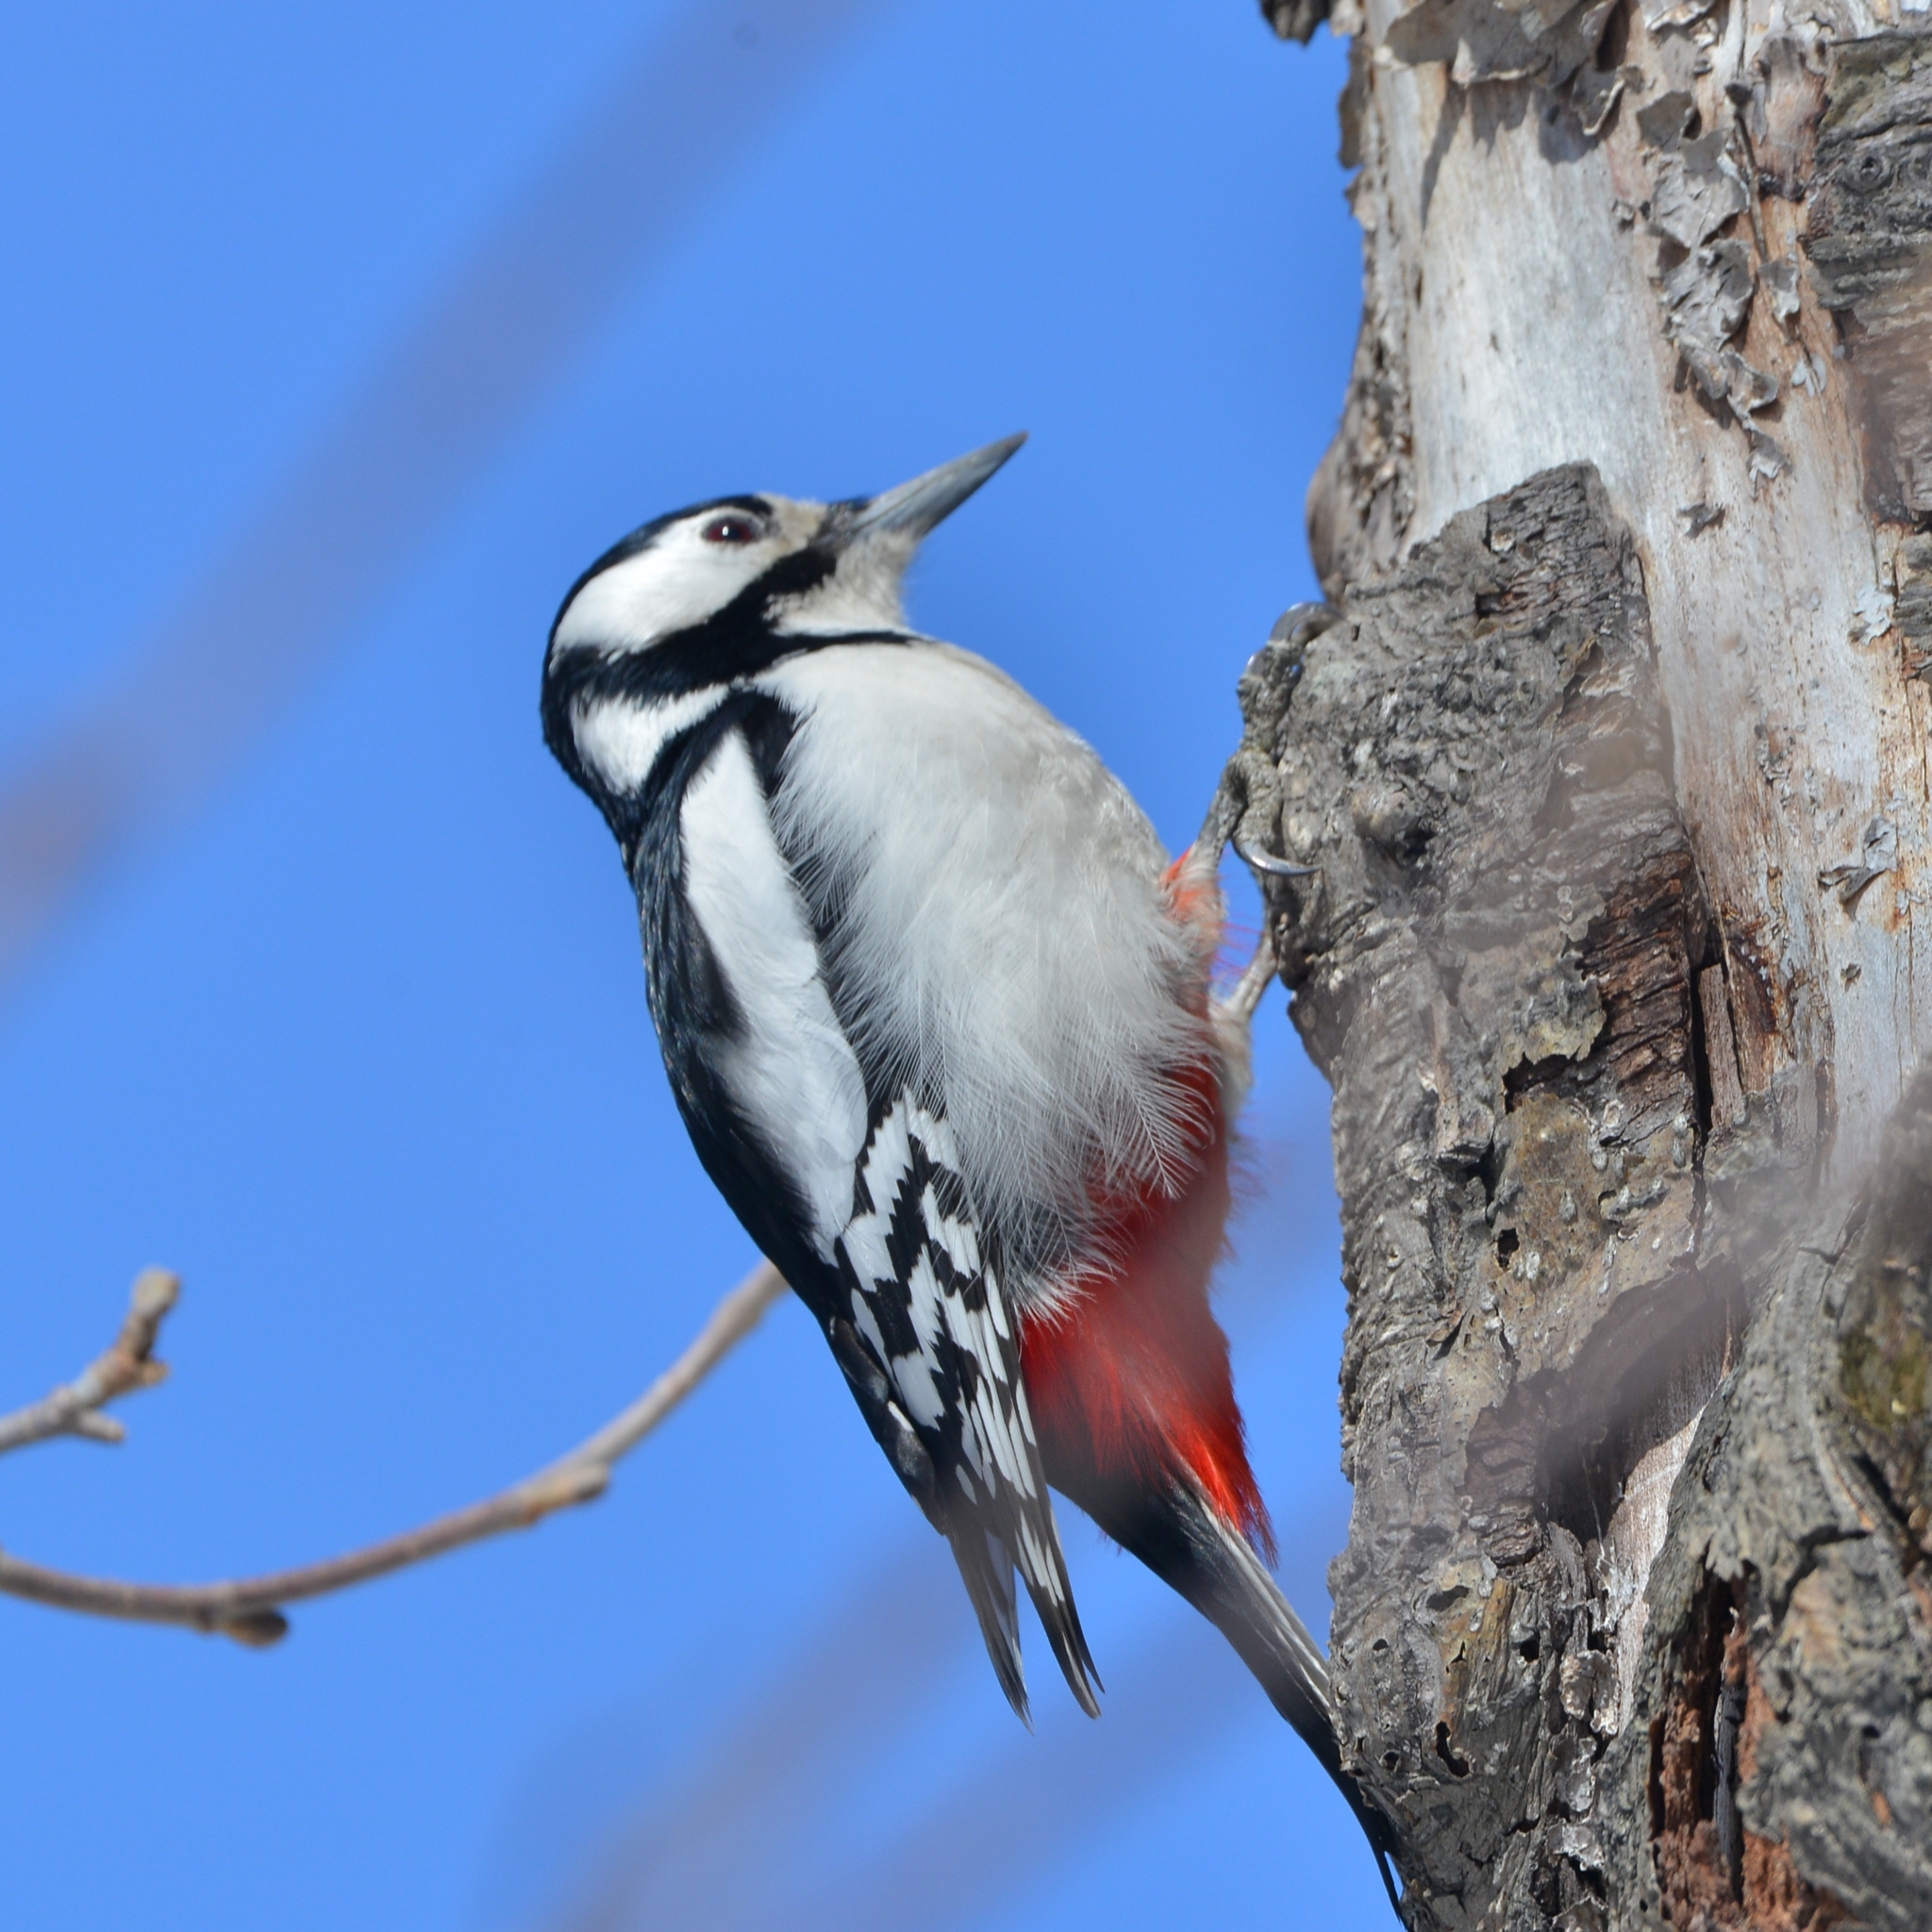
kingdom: Animalia
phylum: Chordata
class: Aves
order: Piciformes
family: Picidae
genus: Dendrocopos
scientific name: Dendrocopos major
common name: Great spotted woodpecker
